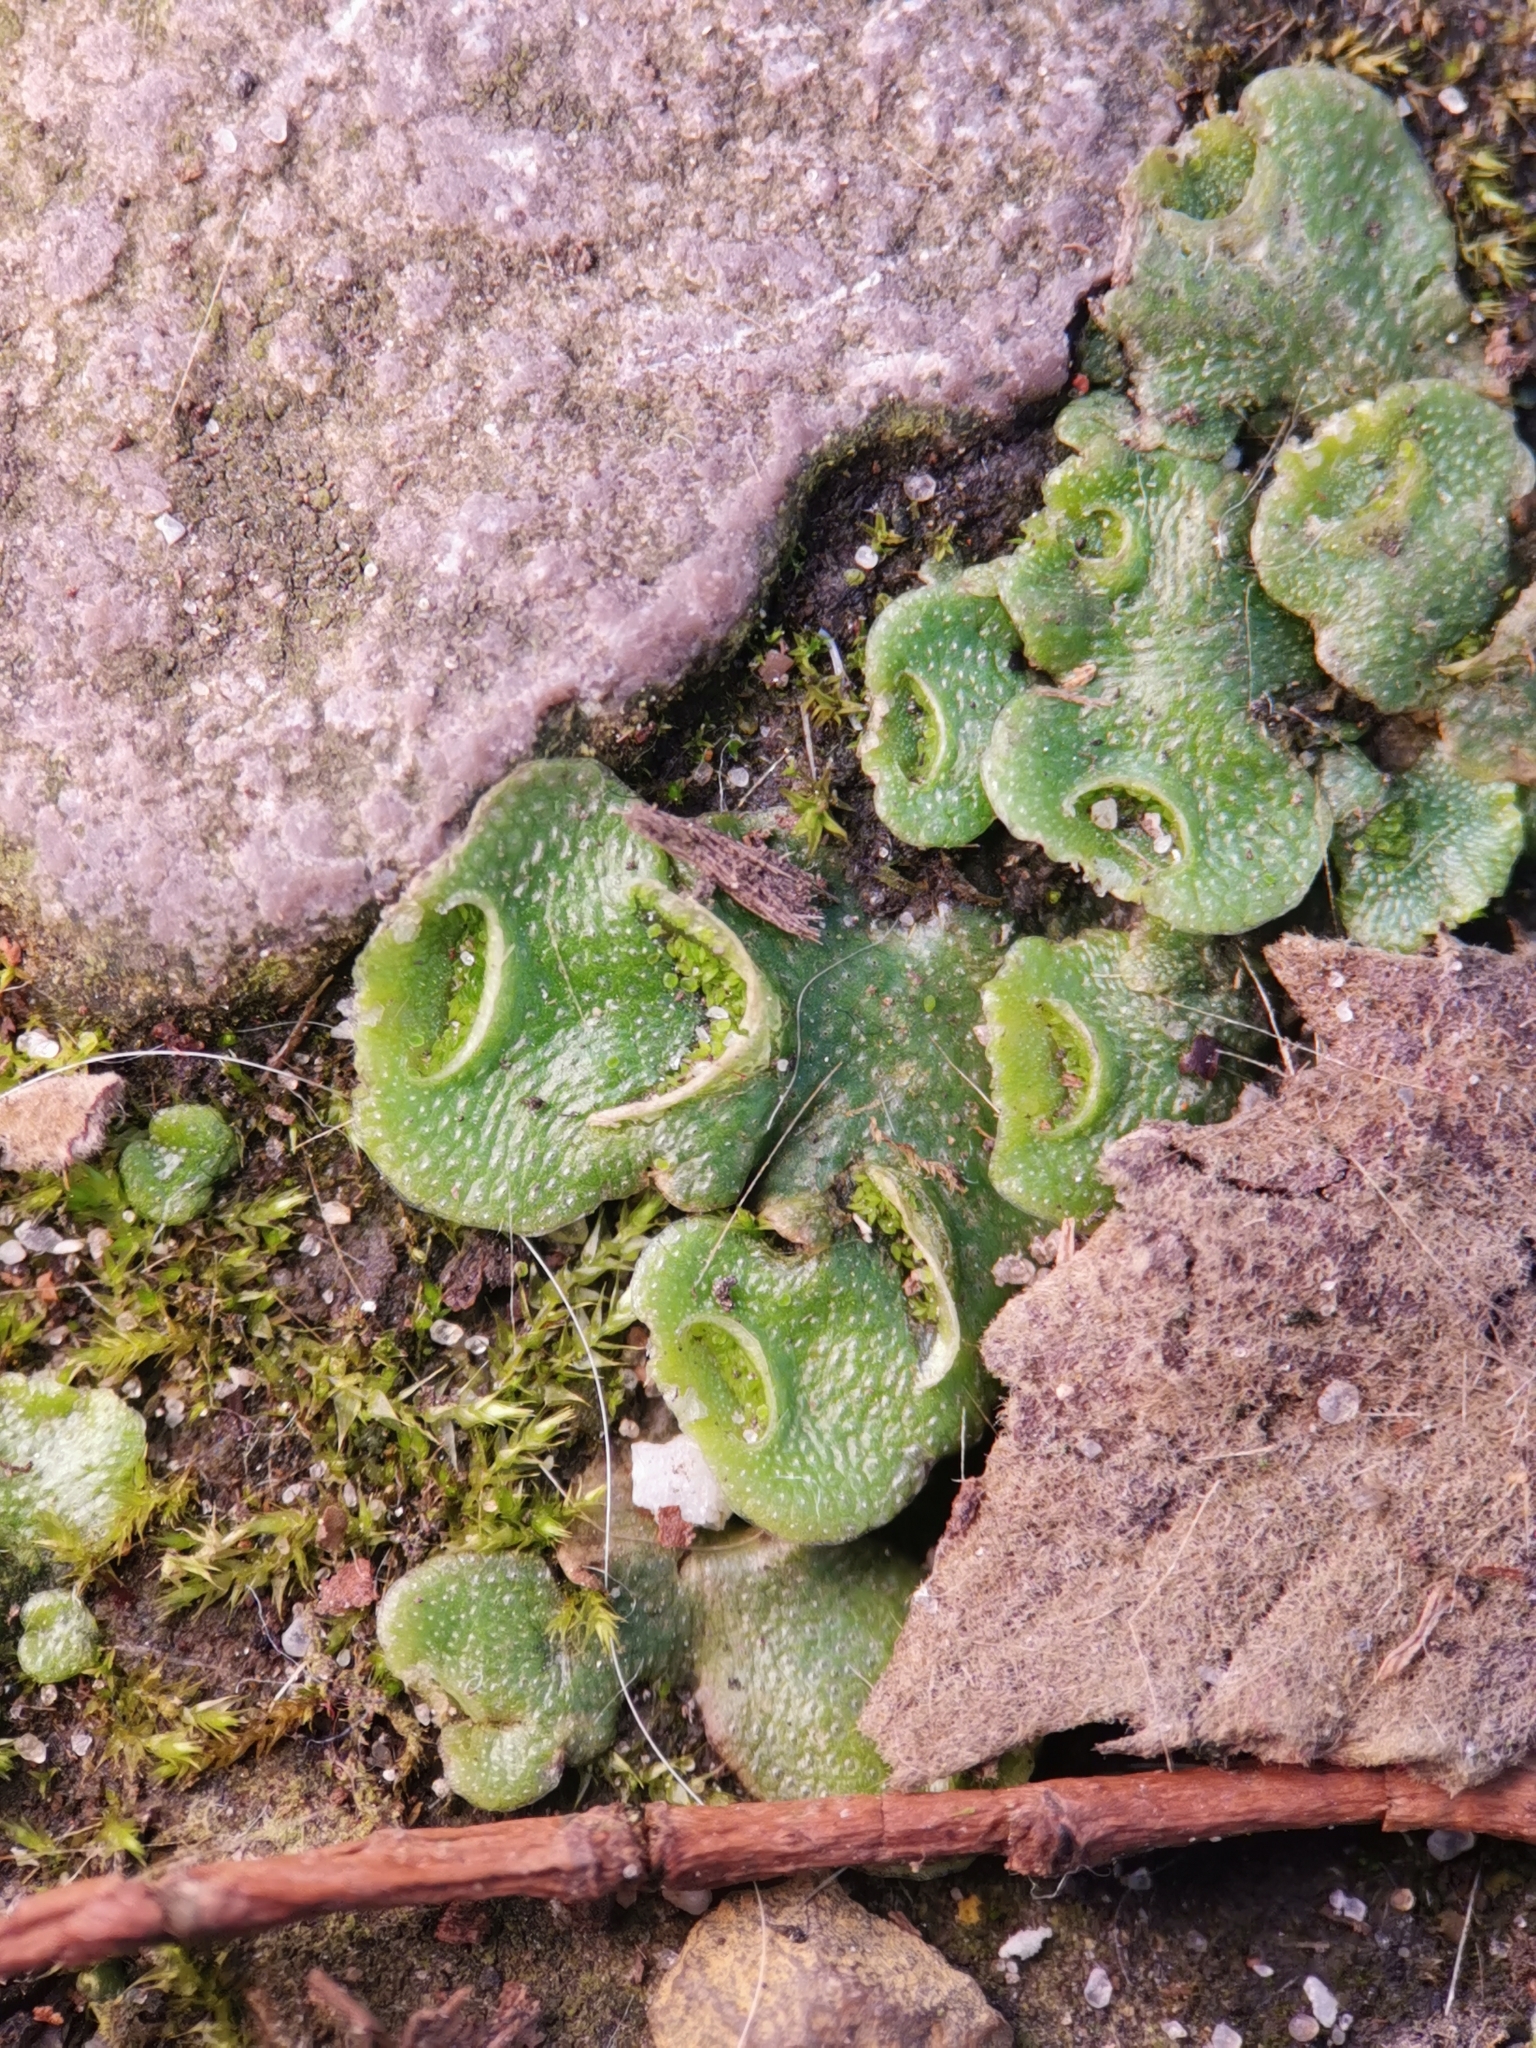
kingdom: Plantae
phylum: Marchantiophyta
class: Marchantiopsida
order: Lunulariales
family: Lunulariaceae
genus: Lunularia
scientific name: Lunularia cruciata
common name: Crescent-cup liverwort
